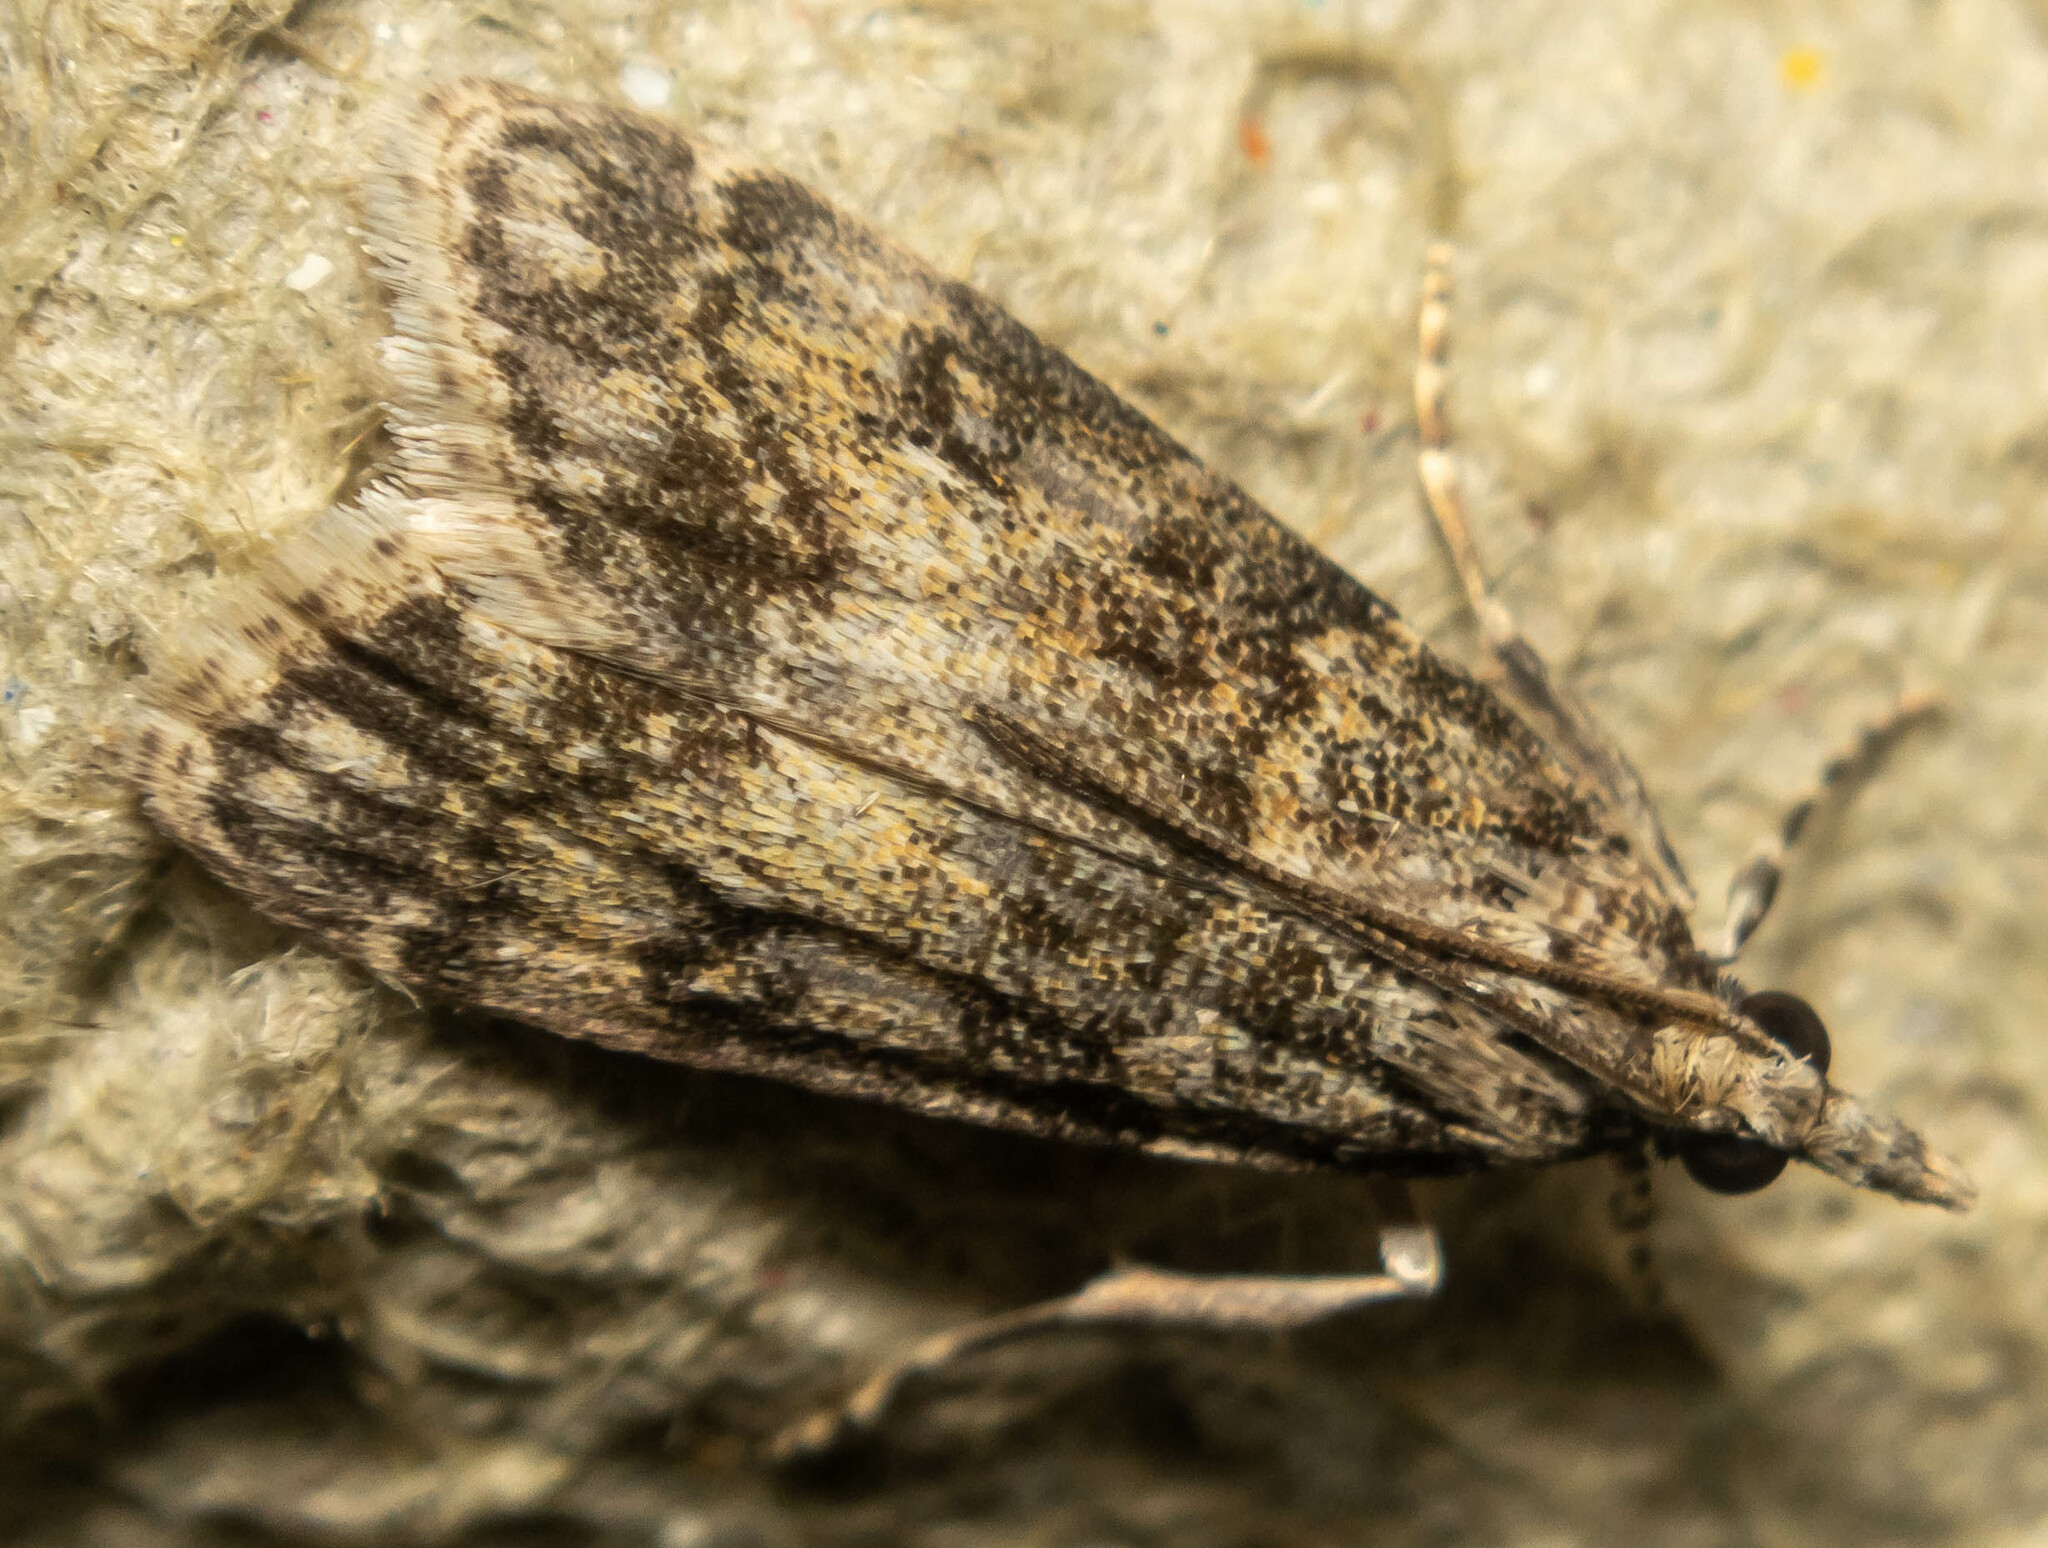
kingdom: Animalia
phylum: Arthropoda
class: Insecta
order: Lepidoptera
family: Crambidae
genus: Eudonia
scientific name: Eudonia lacustrata
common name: Little grey
